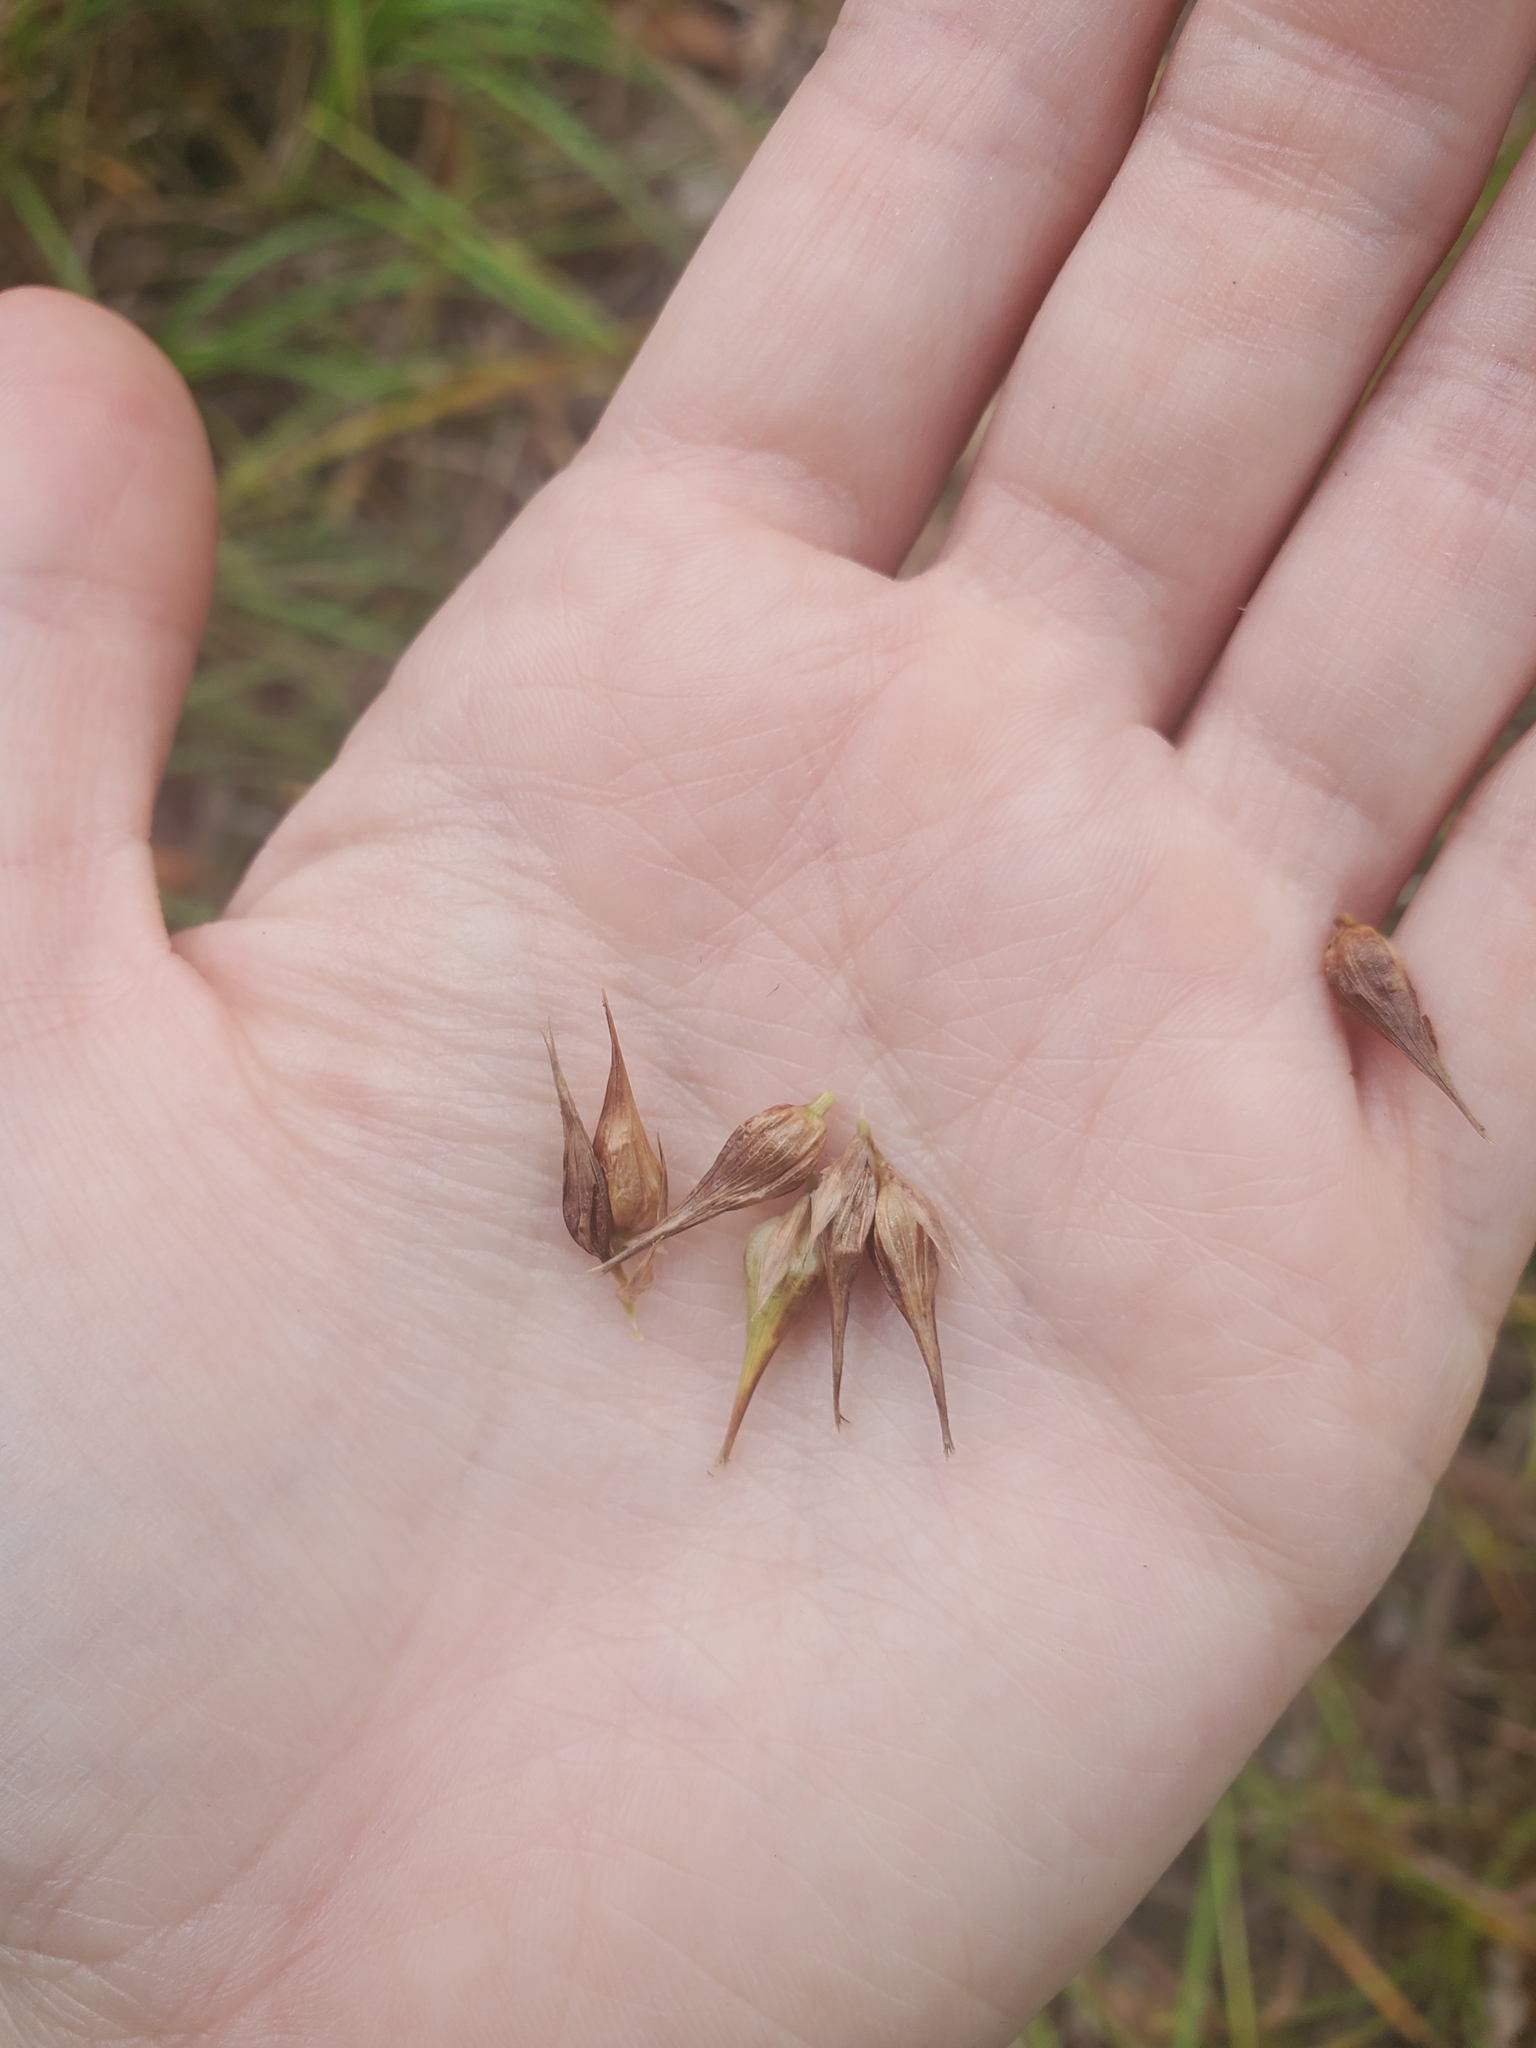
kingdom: Plantae
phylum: Tracheophyta
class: Liliopsida
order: Poales
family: Cyperaceae
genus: Carex
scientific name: Carex lupulina
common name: Hop sedge
